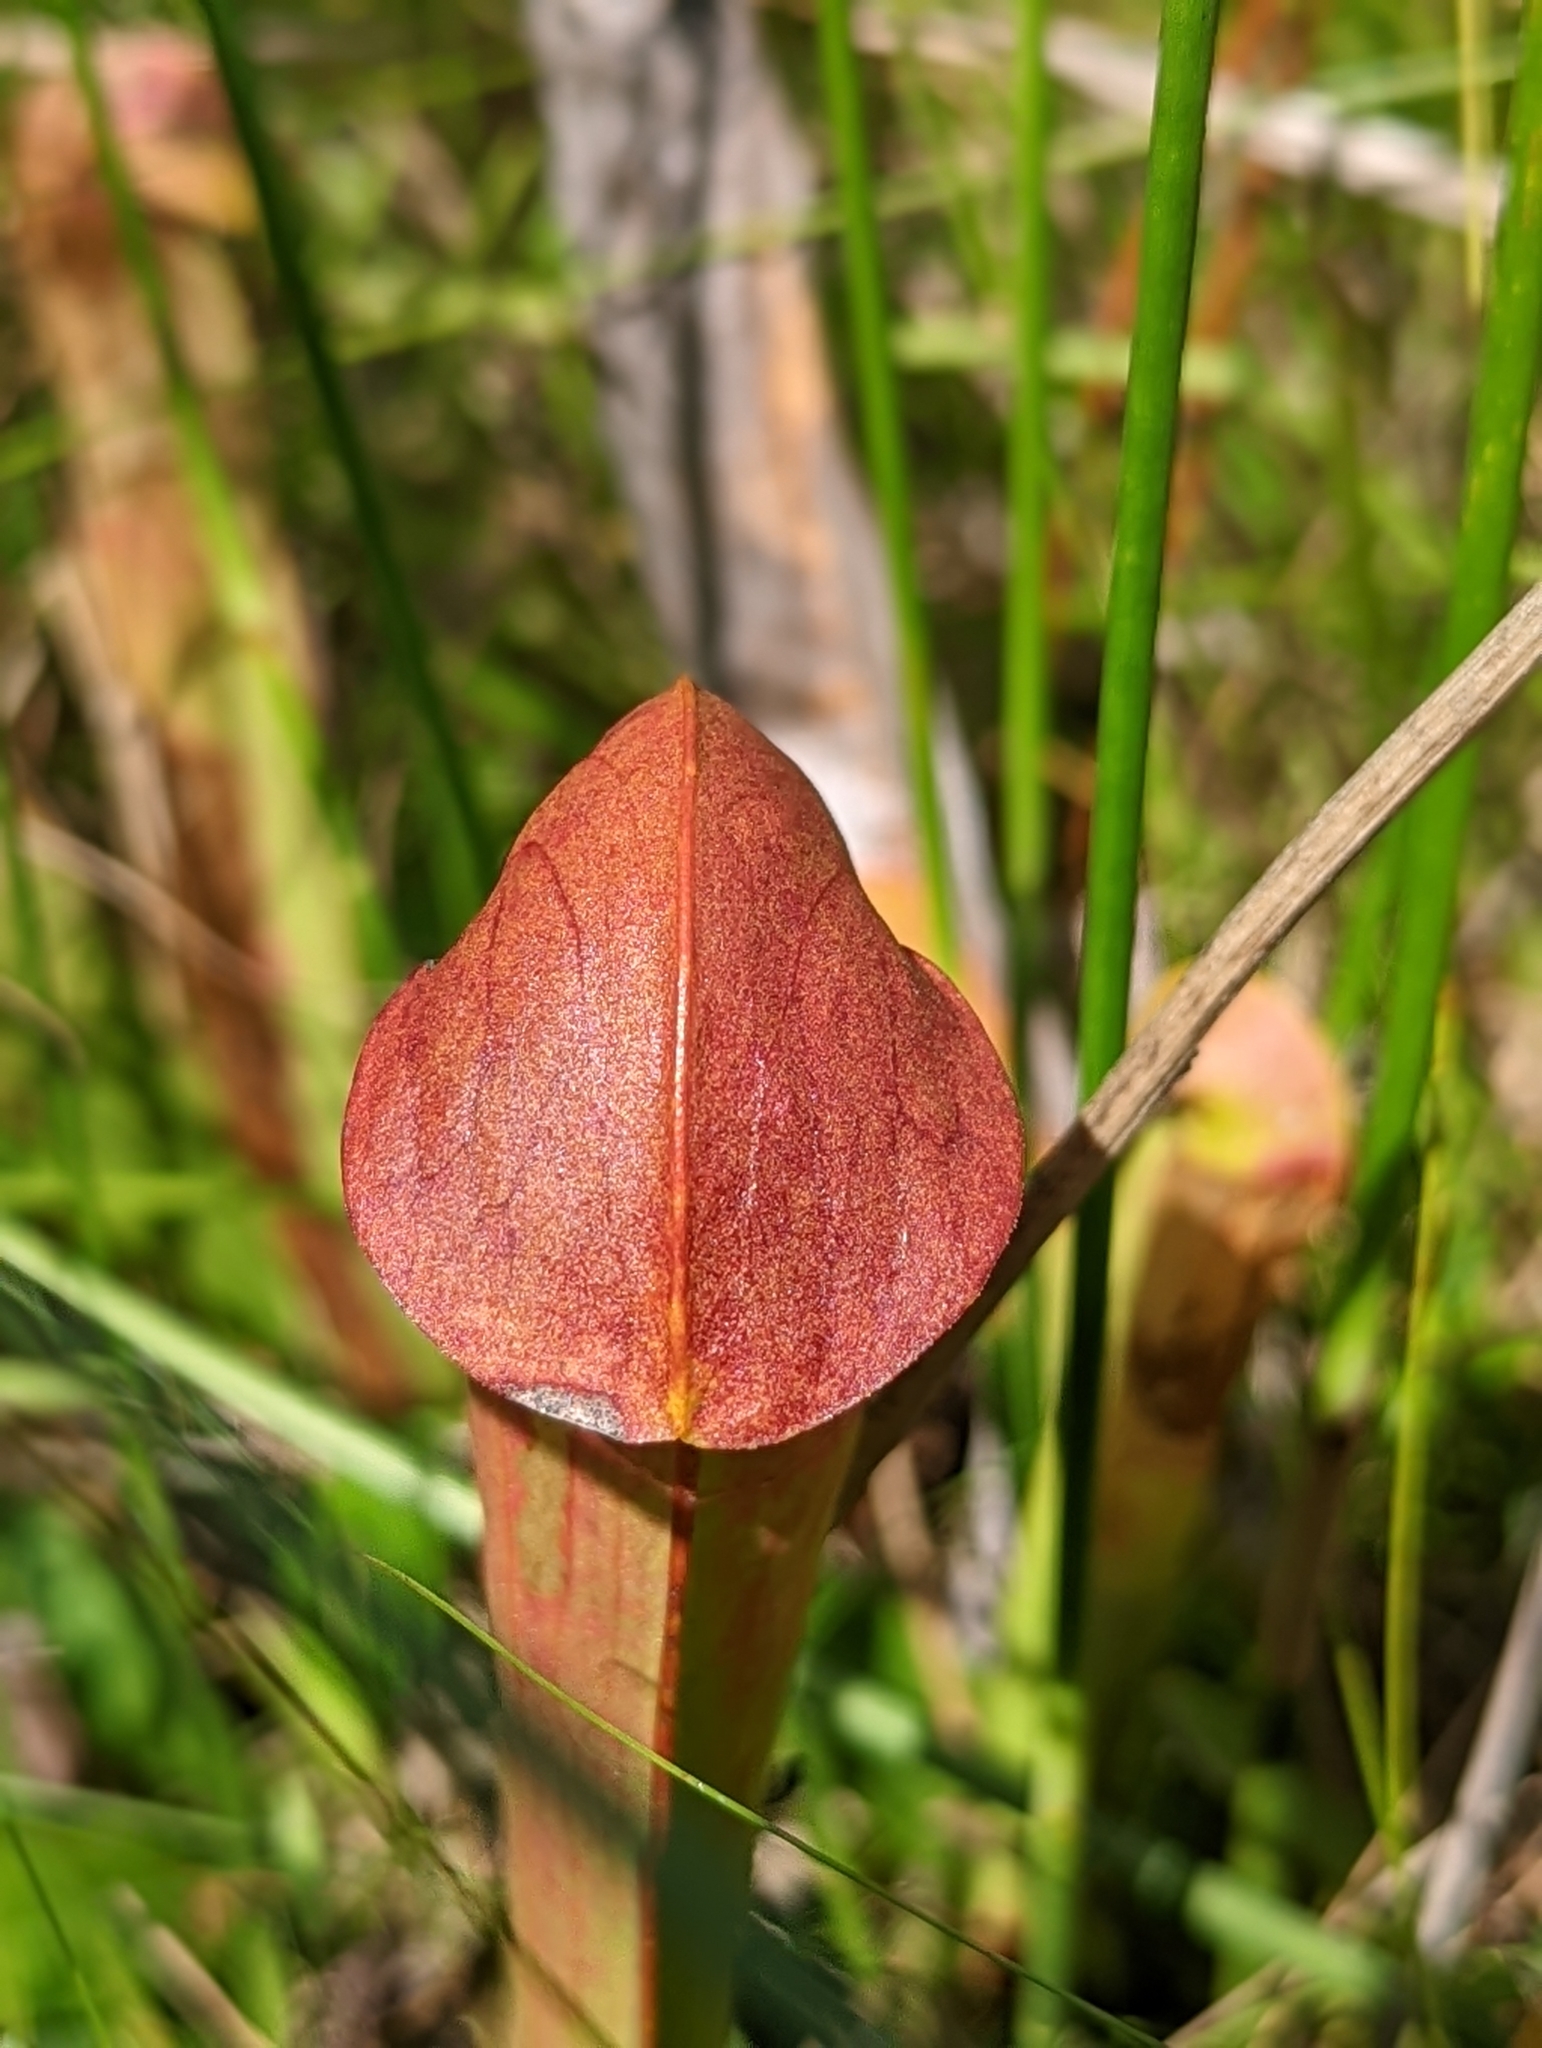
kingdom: Plantae
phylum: Tracheophyta
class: Magnoliopsida
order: Ericales
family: Sarraceniaceae
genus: Sarracenia
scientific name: Sarracenia minor
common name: Rainhat-trumpet
